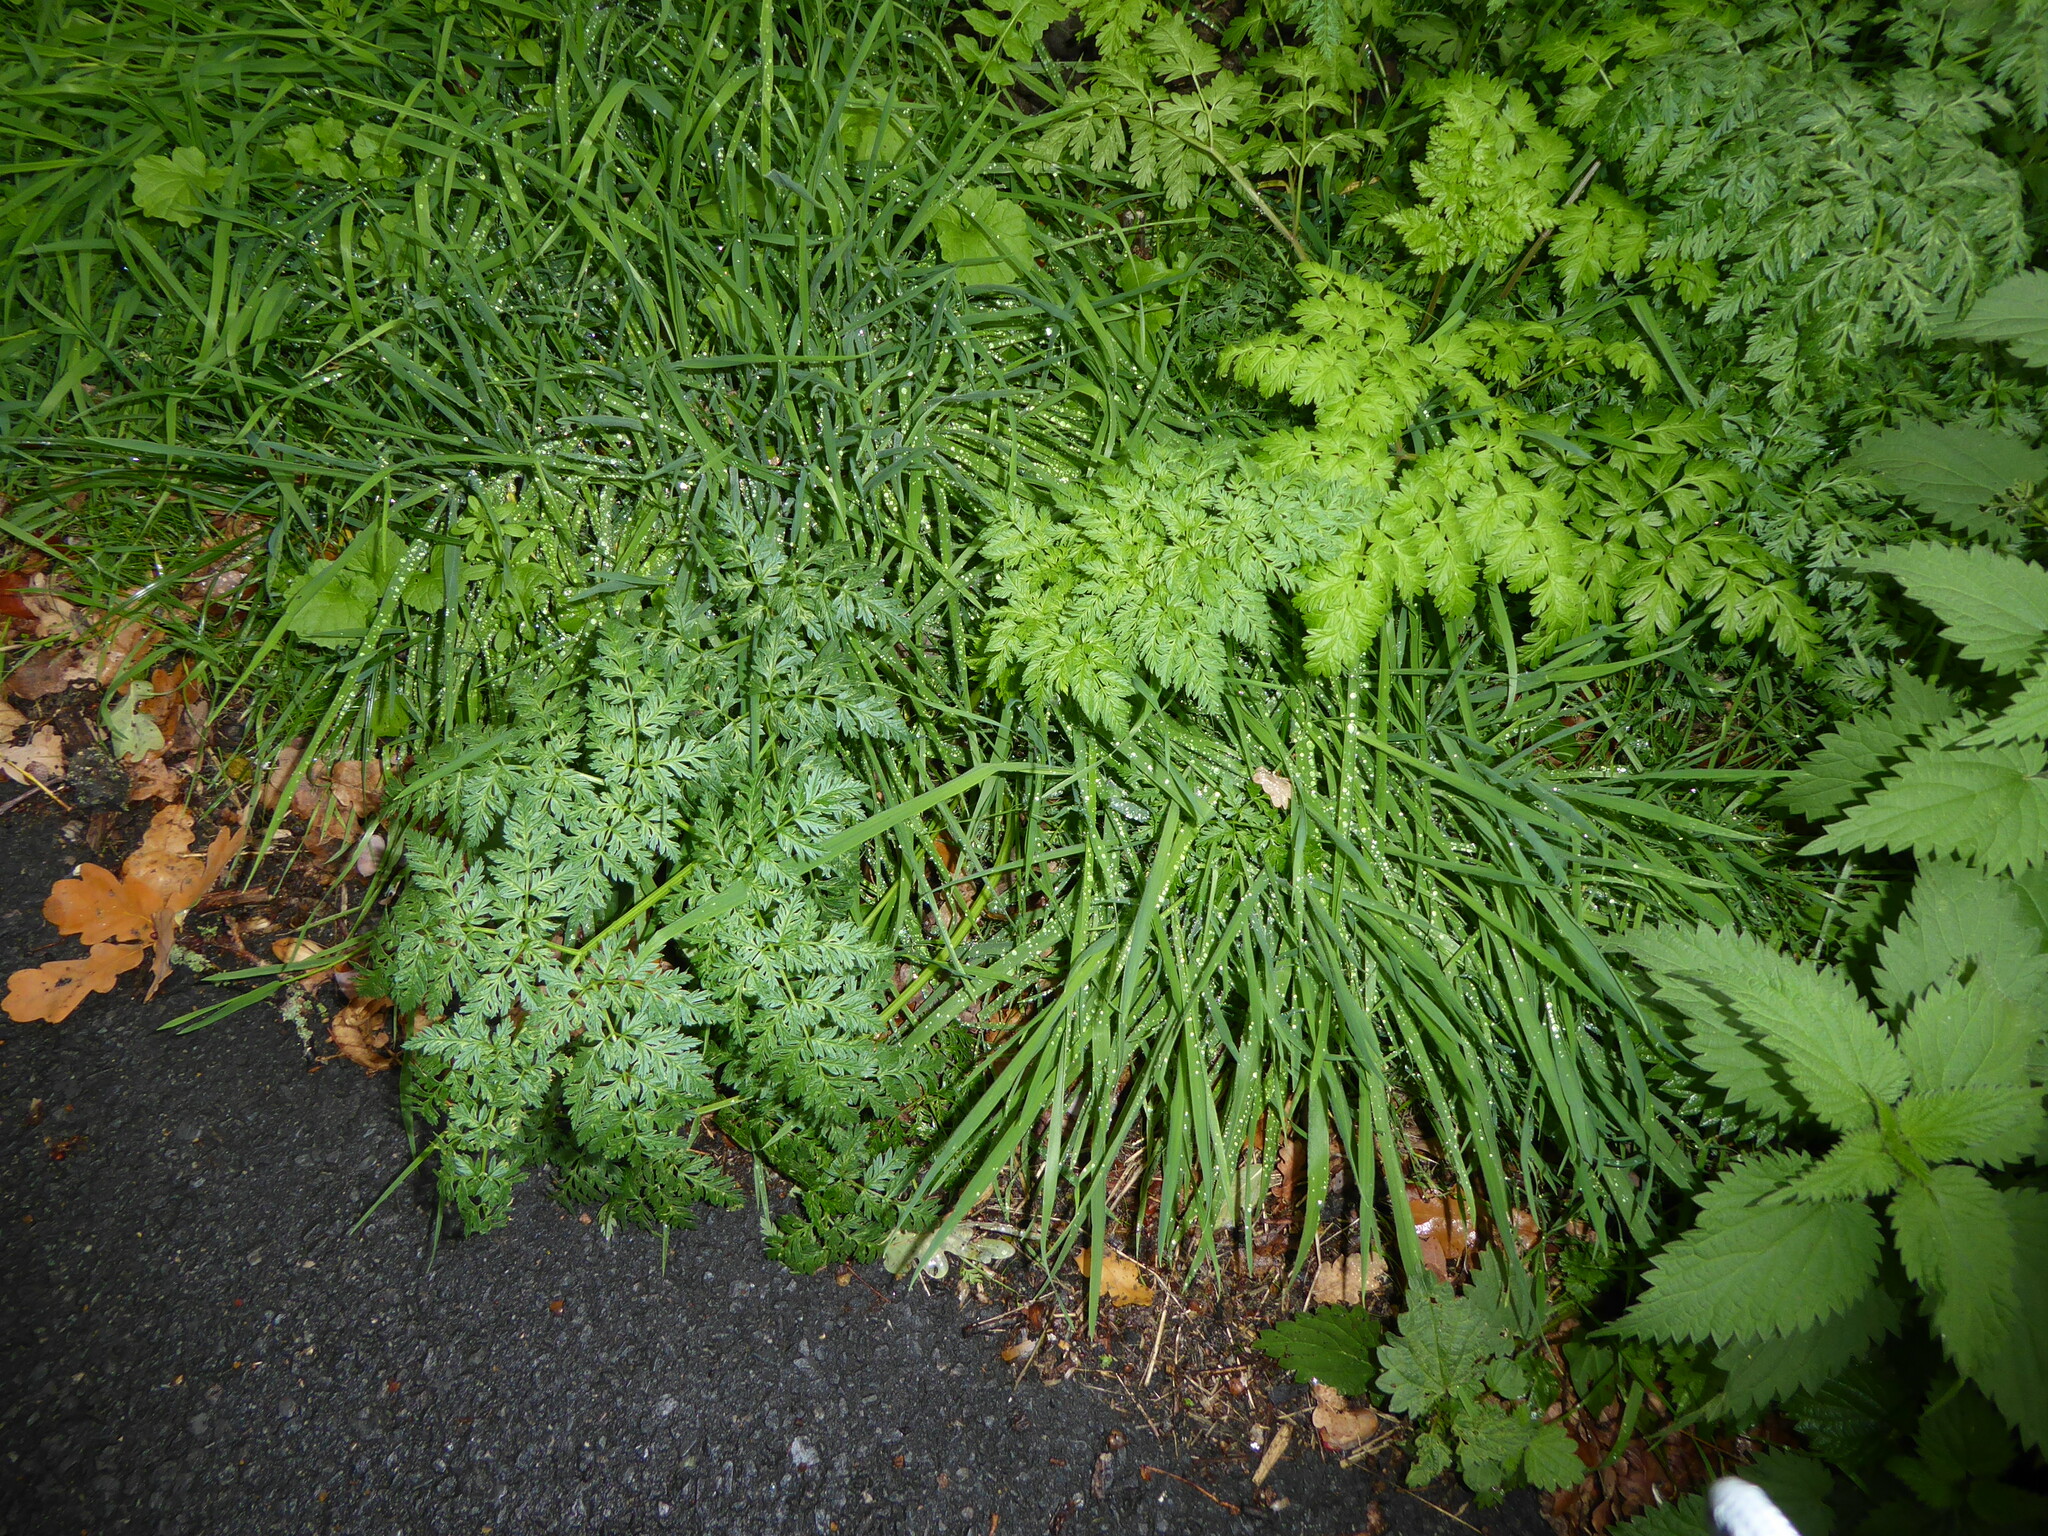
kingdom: Plantae
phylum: Tracheophyta
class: Magnoliopsida
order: Apiales
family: Apiaceae
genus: Conium
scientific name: Conium maculatum
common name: Hemlock
